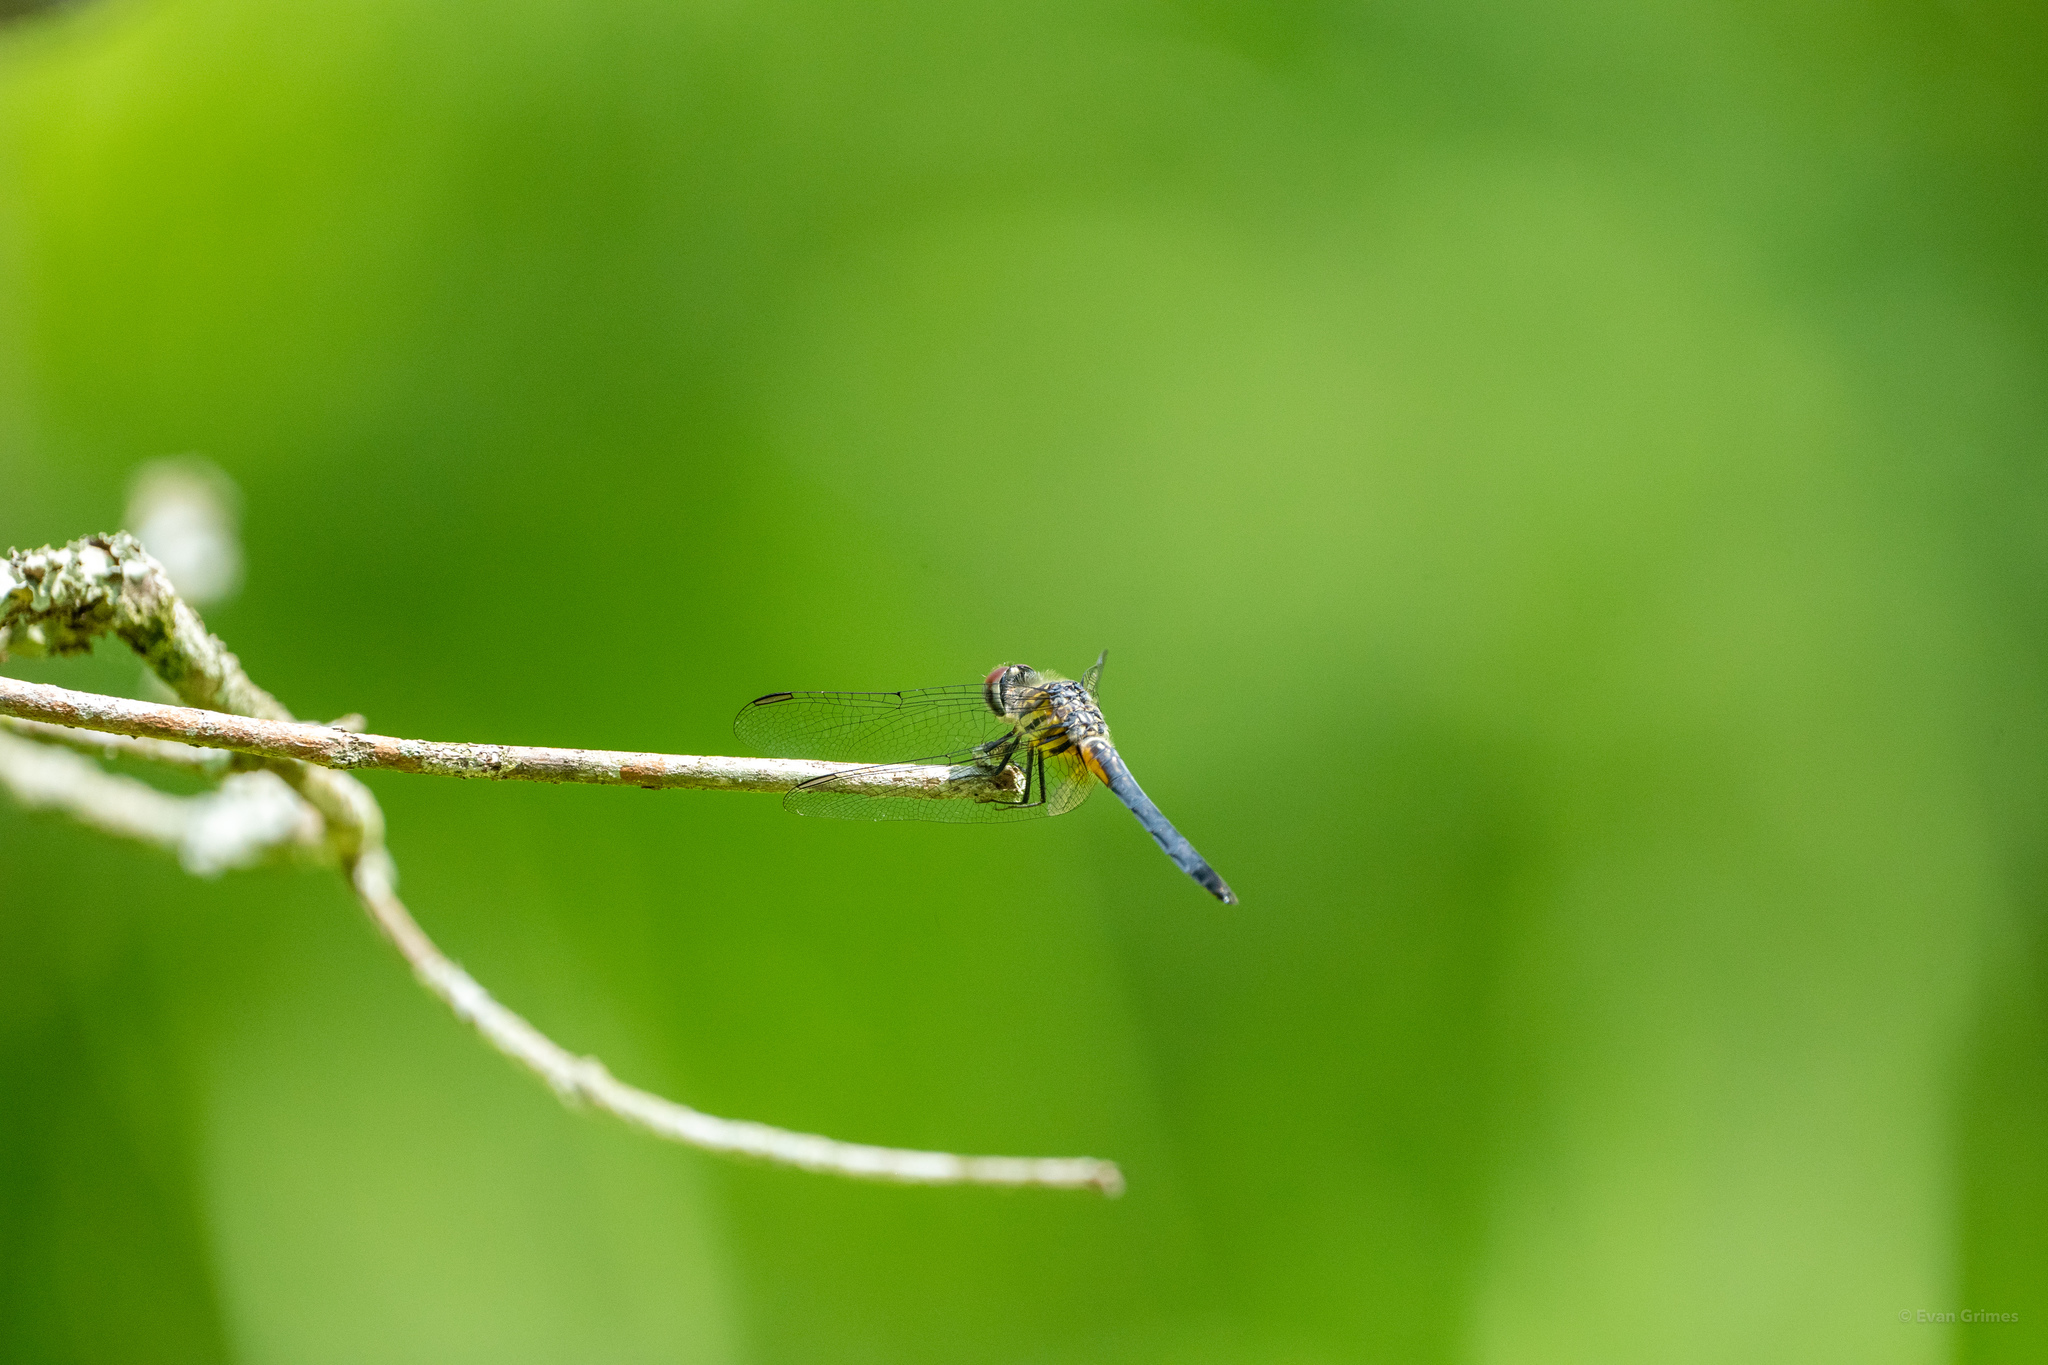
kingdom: Animalia
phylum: Arthropoda
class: Insecta
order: Odonata
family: Libellulidae
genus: Pachydiplax
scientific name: Pachydiplax longipennis
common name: Blue dasher
